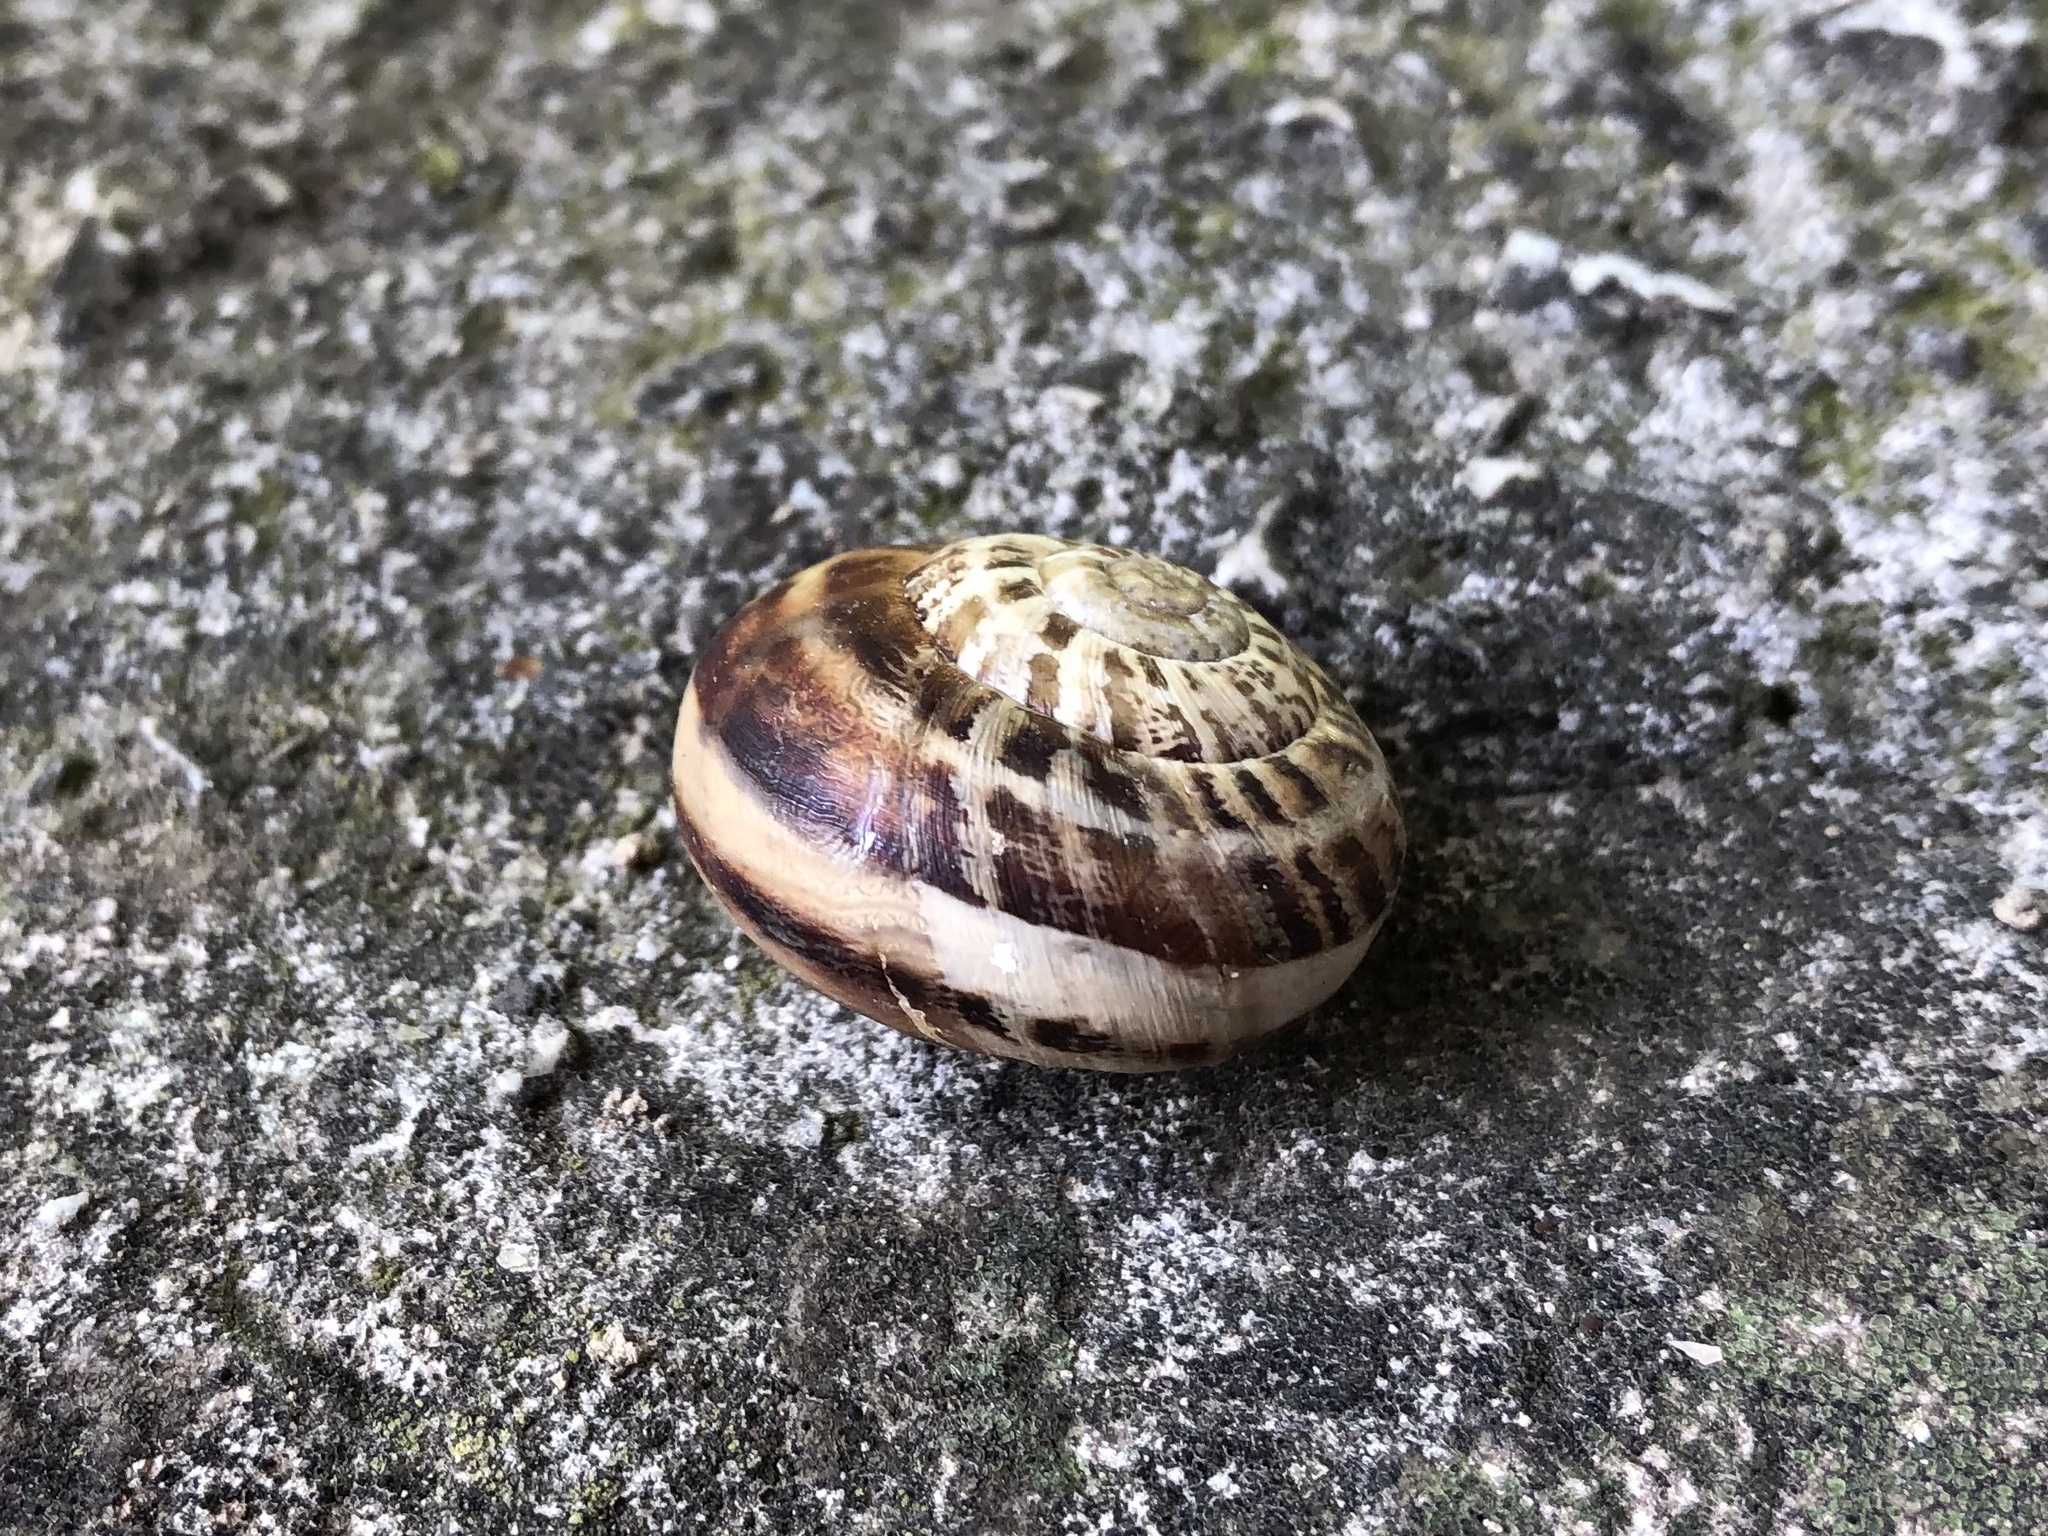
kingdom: Animalia
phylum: Mollusca
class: Gastropoda
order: Stylommatophora
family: Helicidae
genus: Eobania
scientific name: Eobania vermiculata
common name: Chocolateband snail
